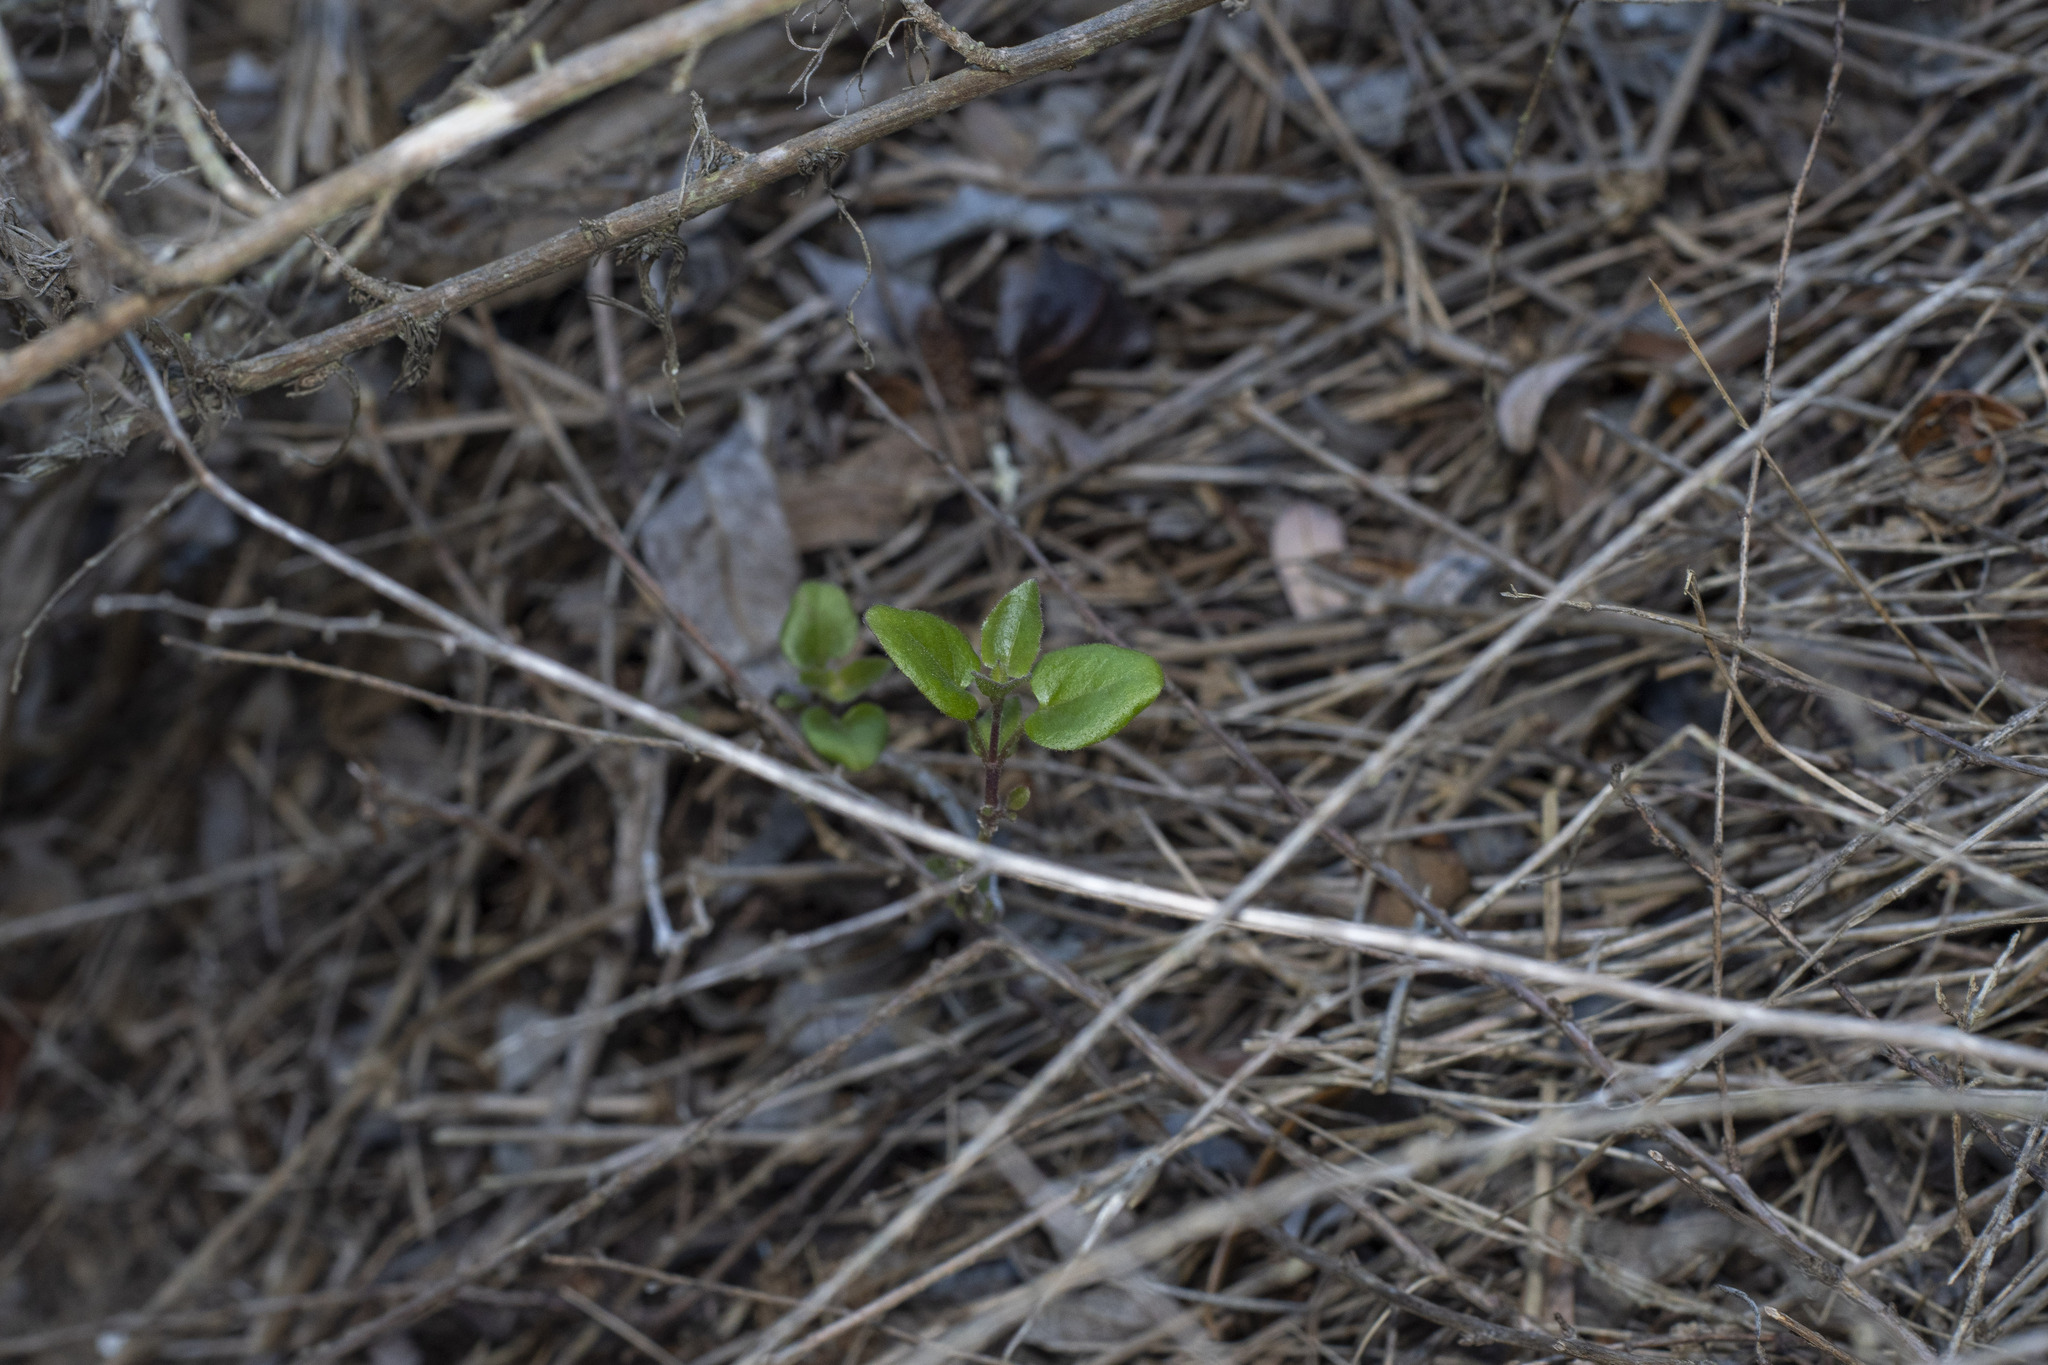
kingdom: Plantae
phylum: Tracheophyta
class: Magnoliopsida
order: Caryophyllales
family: Nyctaginaceae
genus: Mirabilis
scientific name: Mirabilis laevis
